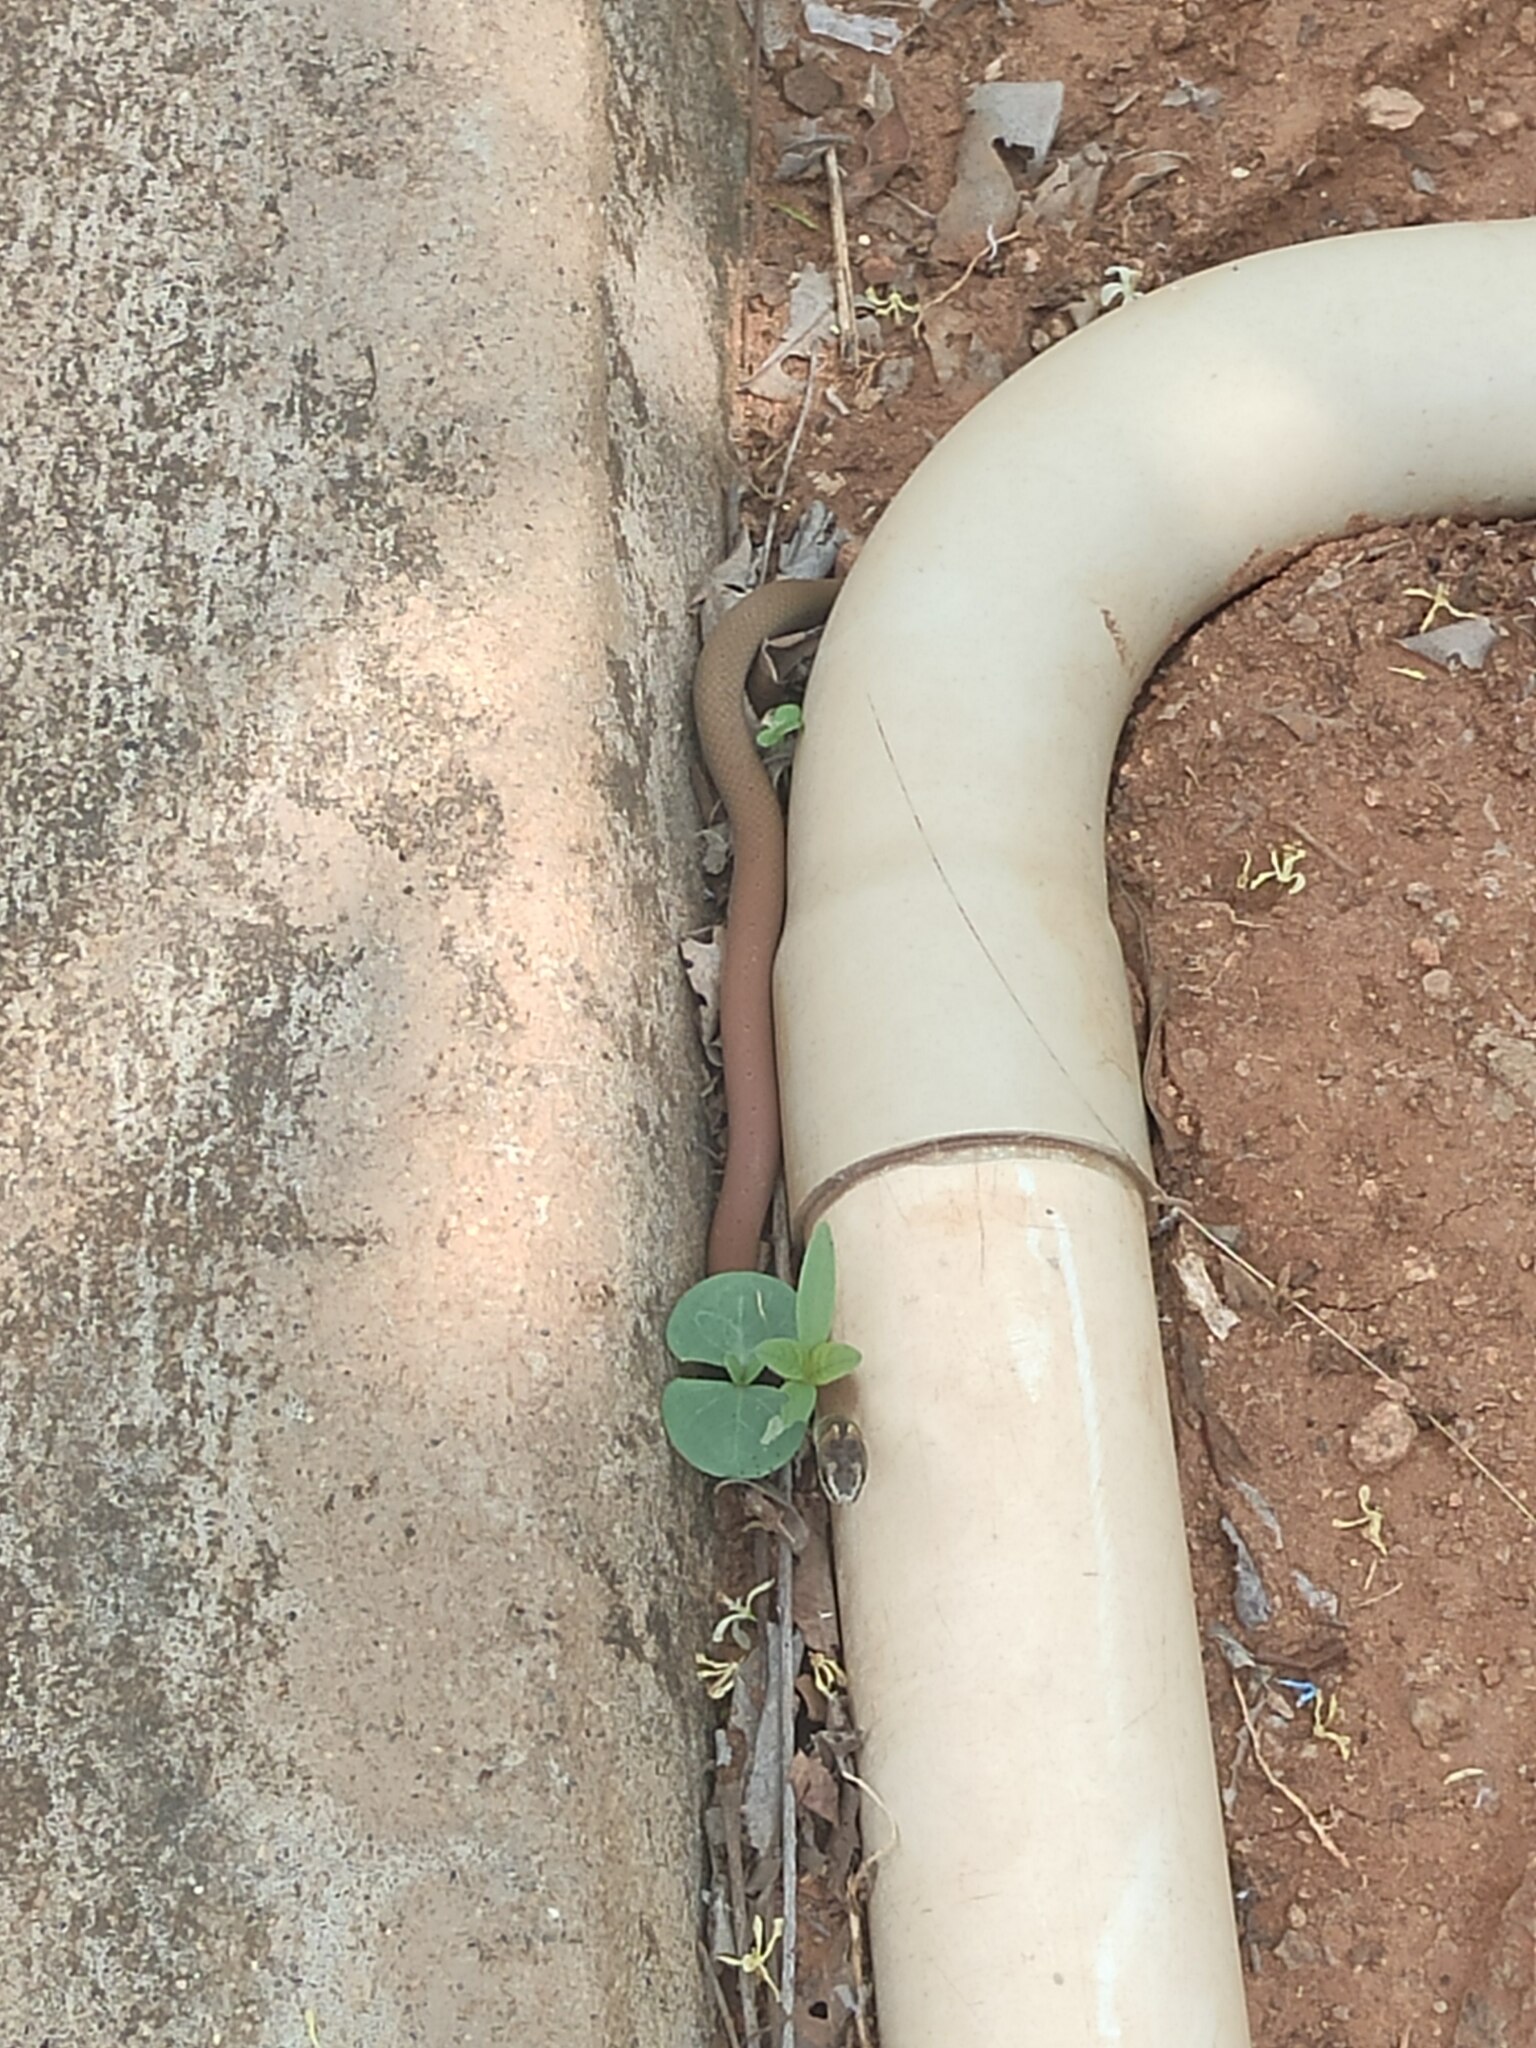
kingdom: Animalia
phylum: Chordata
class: Squamata
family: Colubridae
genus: Sibynophis
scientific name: Sibynophis subpunctatus
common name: Black-headed snake
